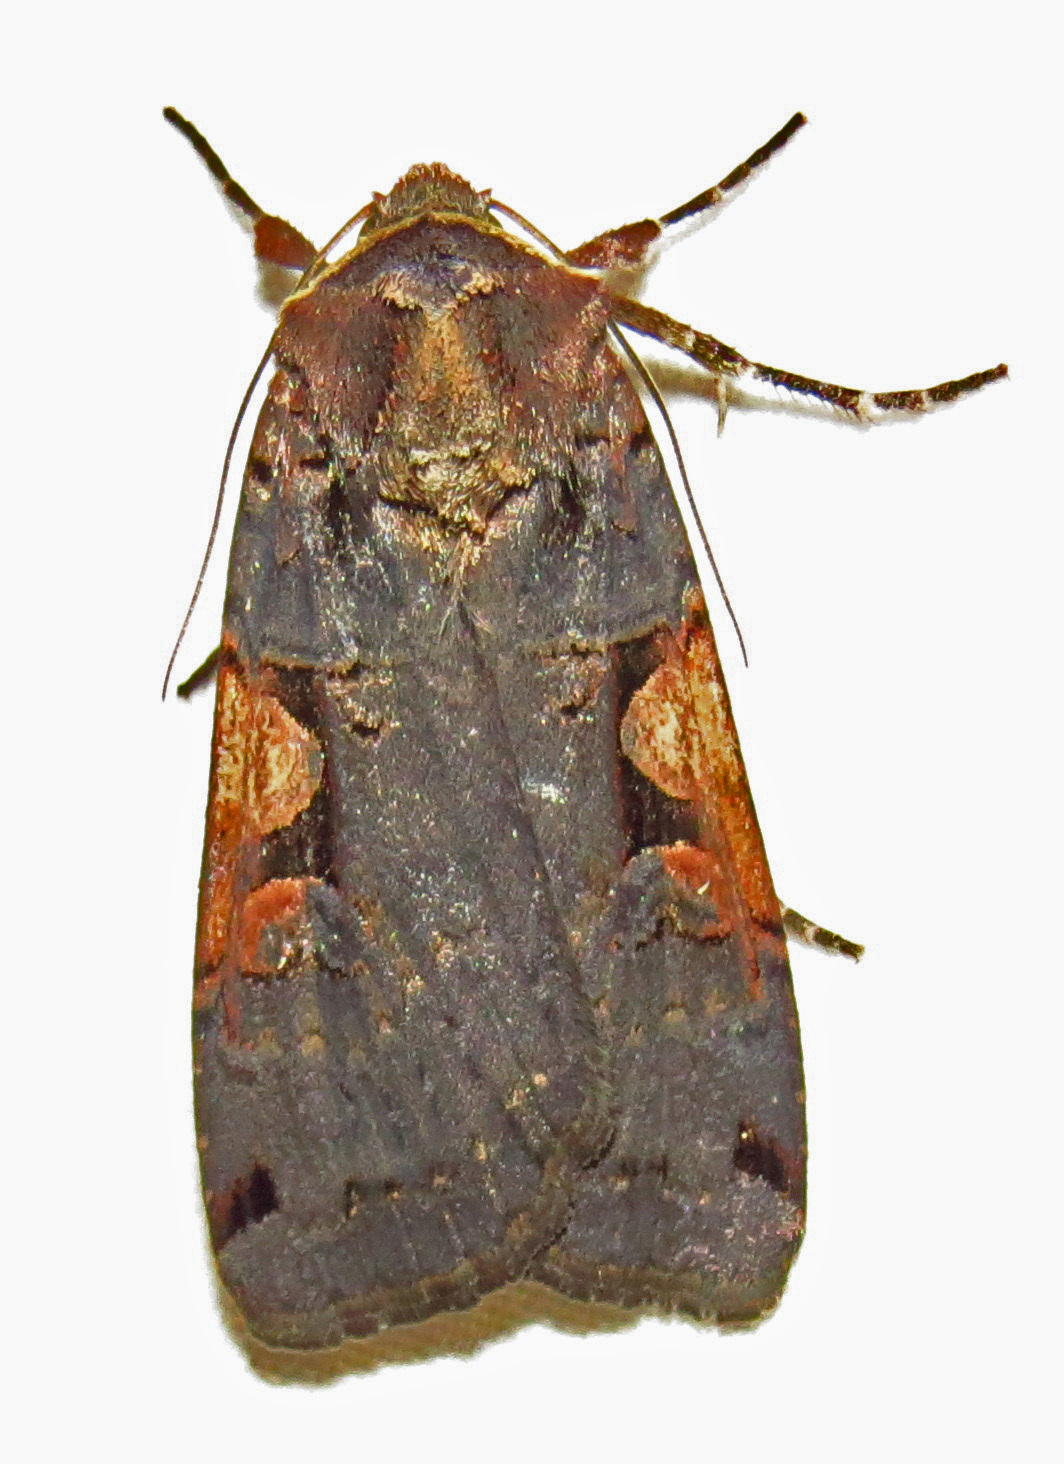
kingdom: Animalia
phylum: Arthropoda
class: Insecta
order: Lepidoptera
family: Noctuidae
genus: Xestia
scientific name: Xestia dolosa
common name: Cutworm moth
